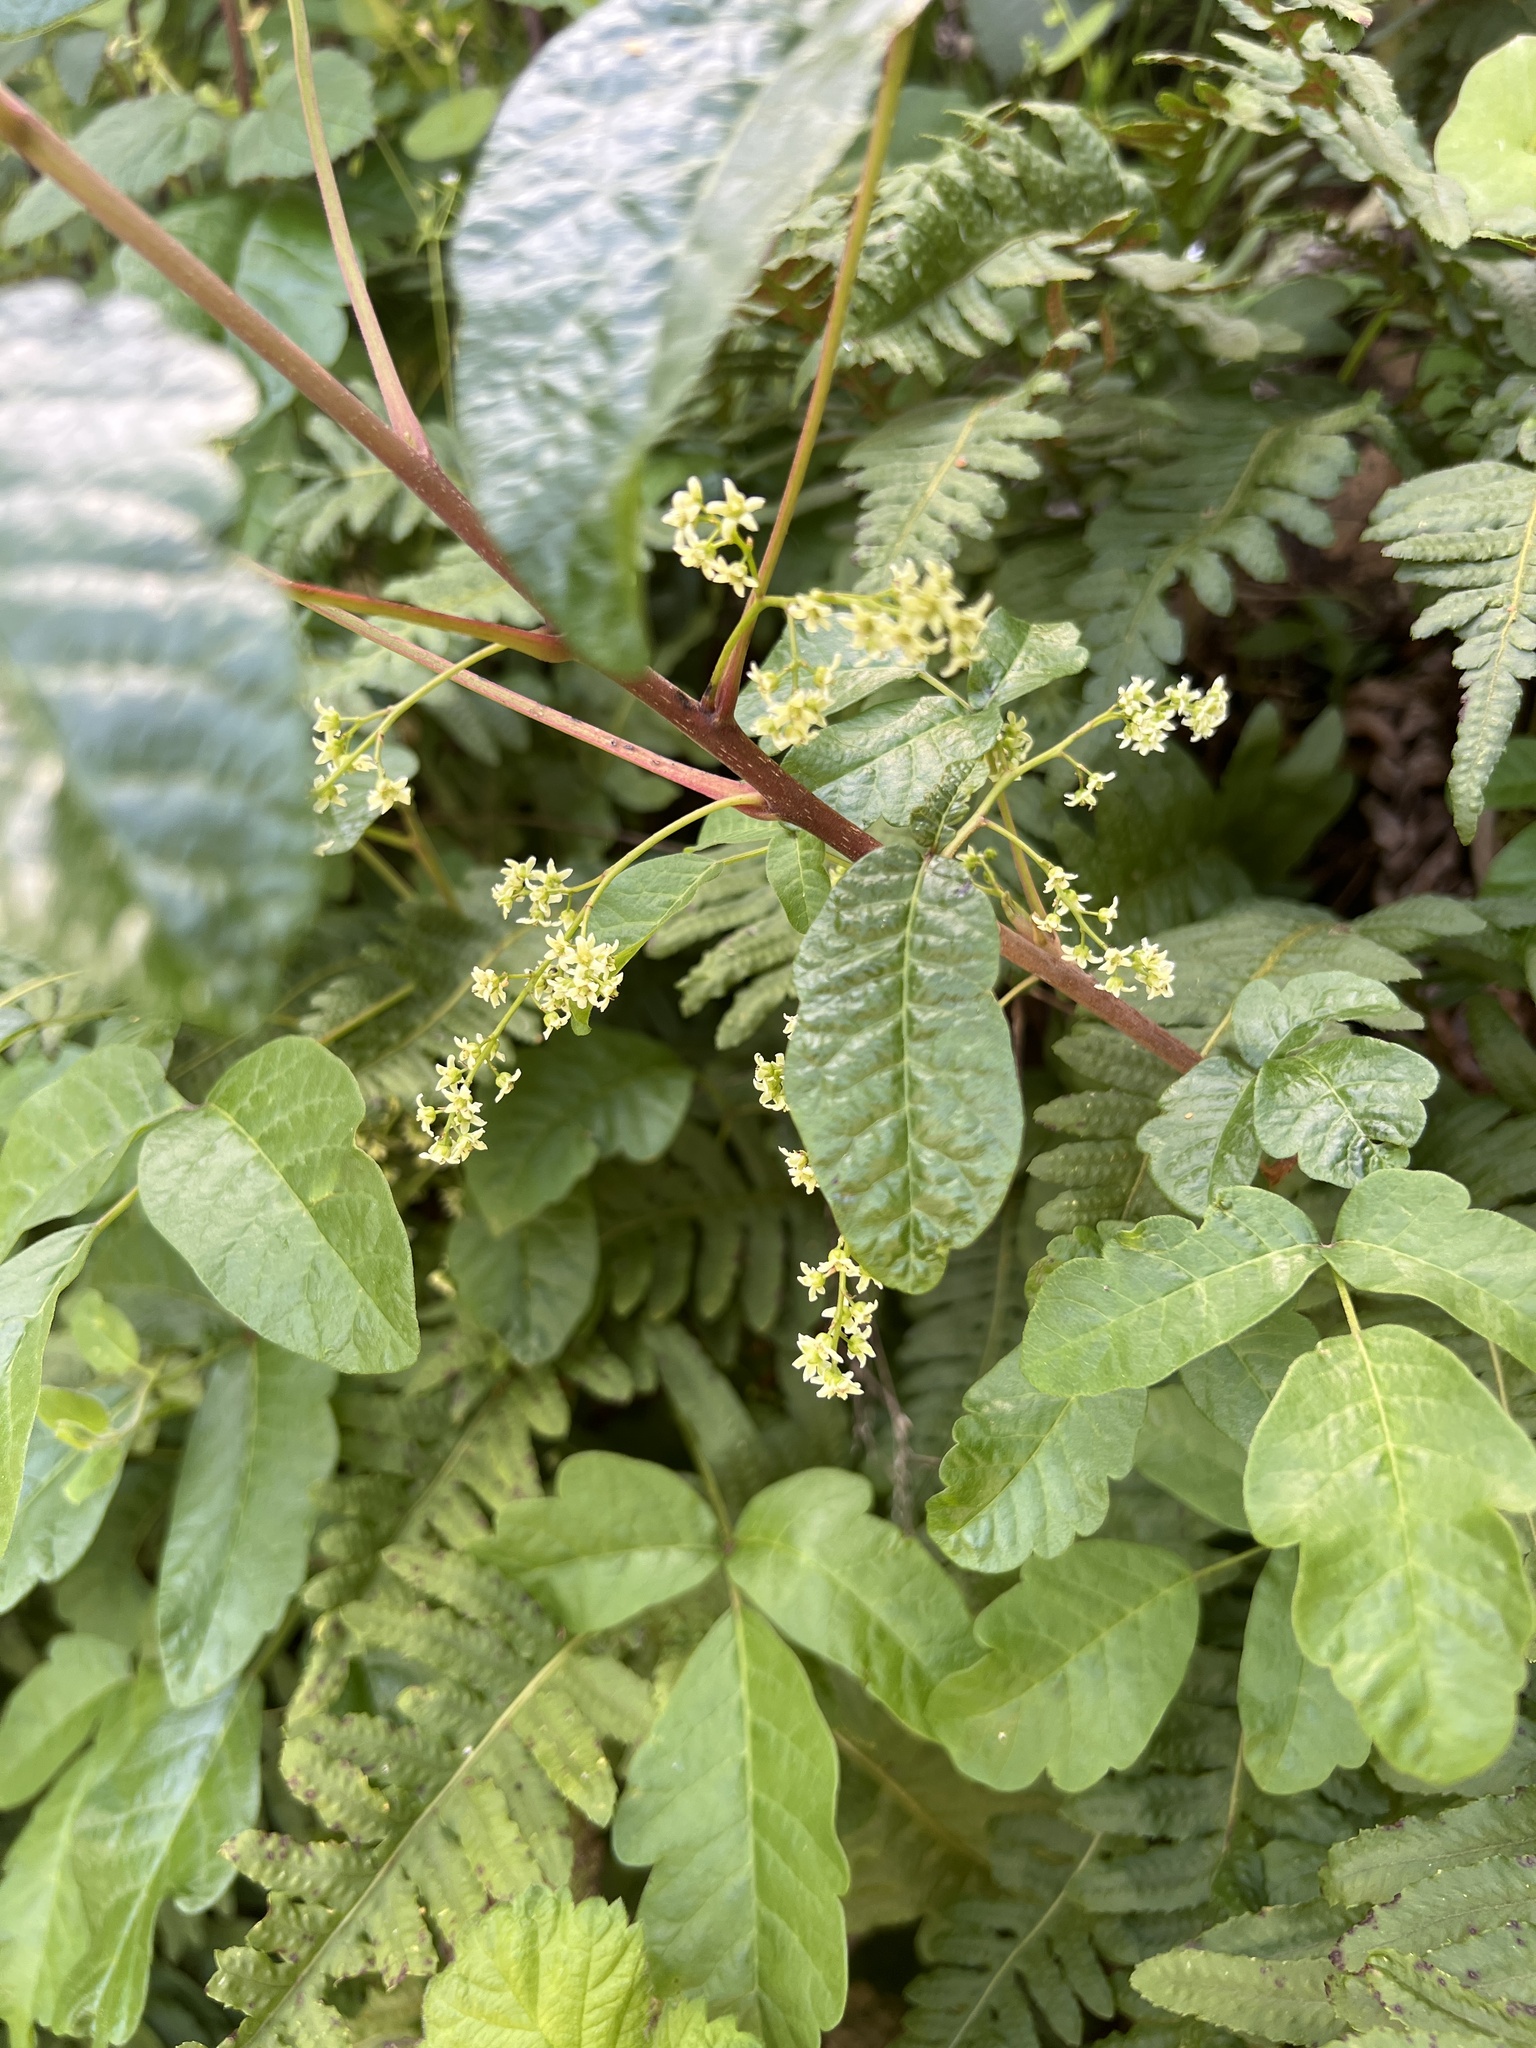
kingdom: Plantae
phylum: Tracheophyta
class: Magnoliopsida
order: Sapindales
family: Anacardiaceae
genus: Toxicodendron
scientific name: Toxicodendron diversilobum
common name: Pacific poison-oak
